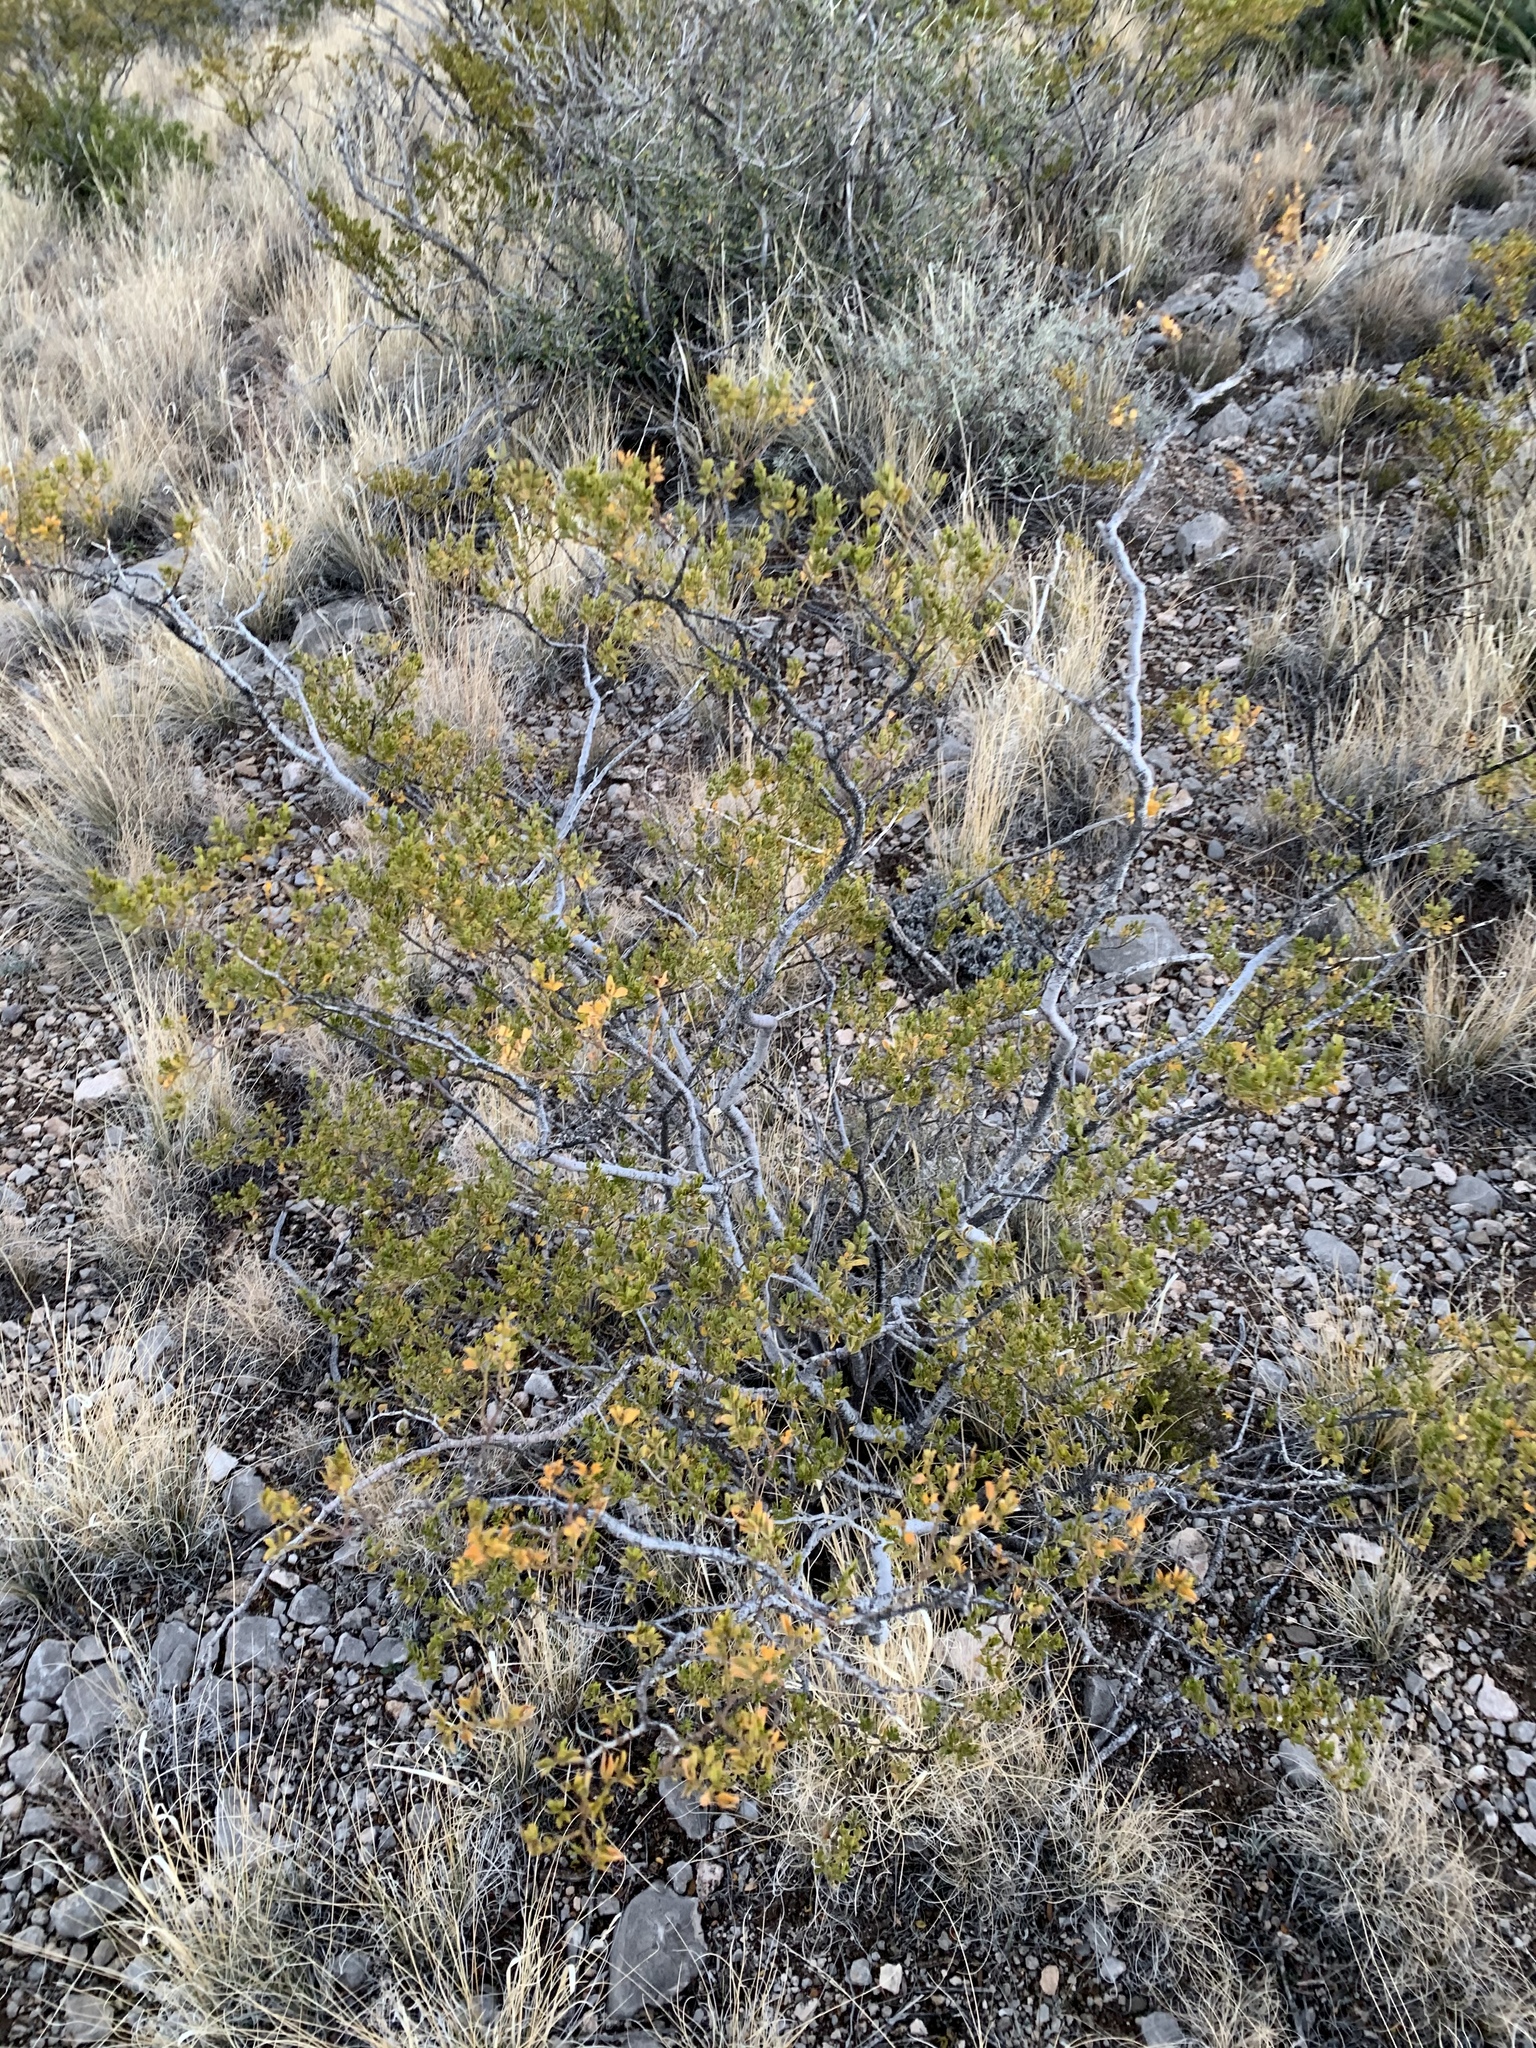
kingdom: Plantae
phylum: Tracheophyta
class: Magnoliopsida
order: Zygophyllales
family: Zygophyllaceae
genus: Larrea
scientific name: Larrea tridentata
